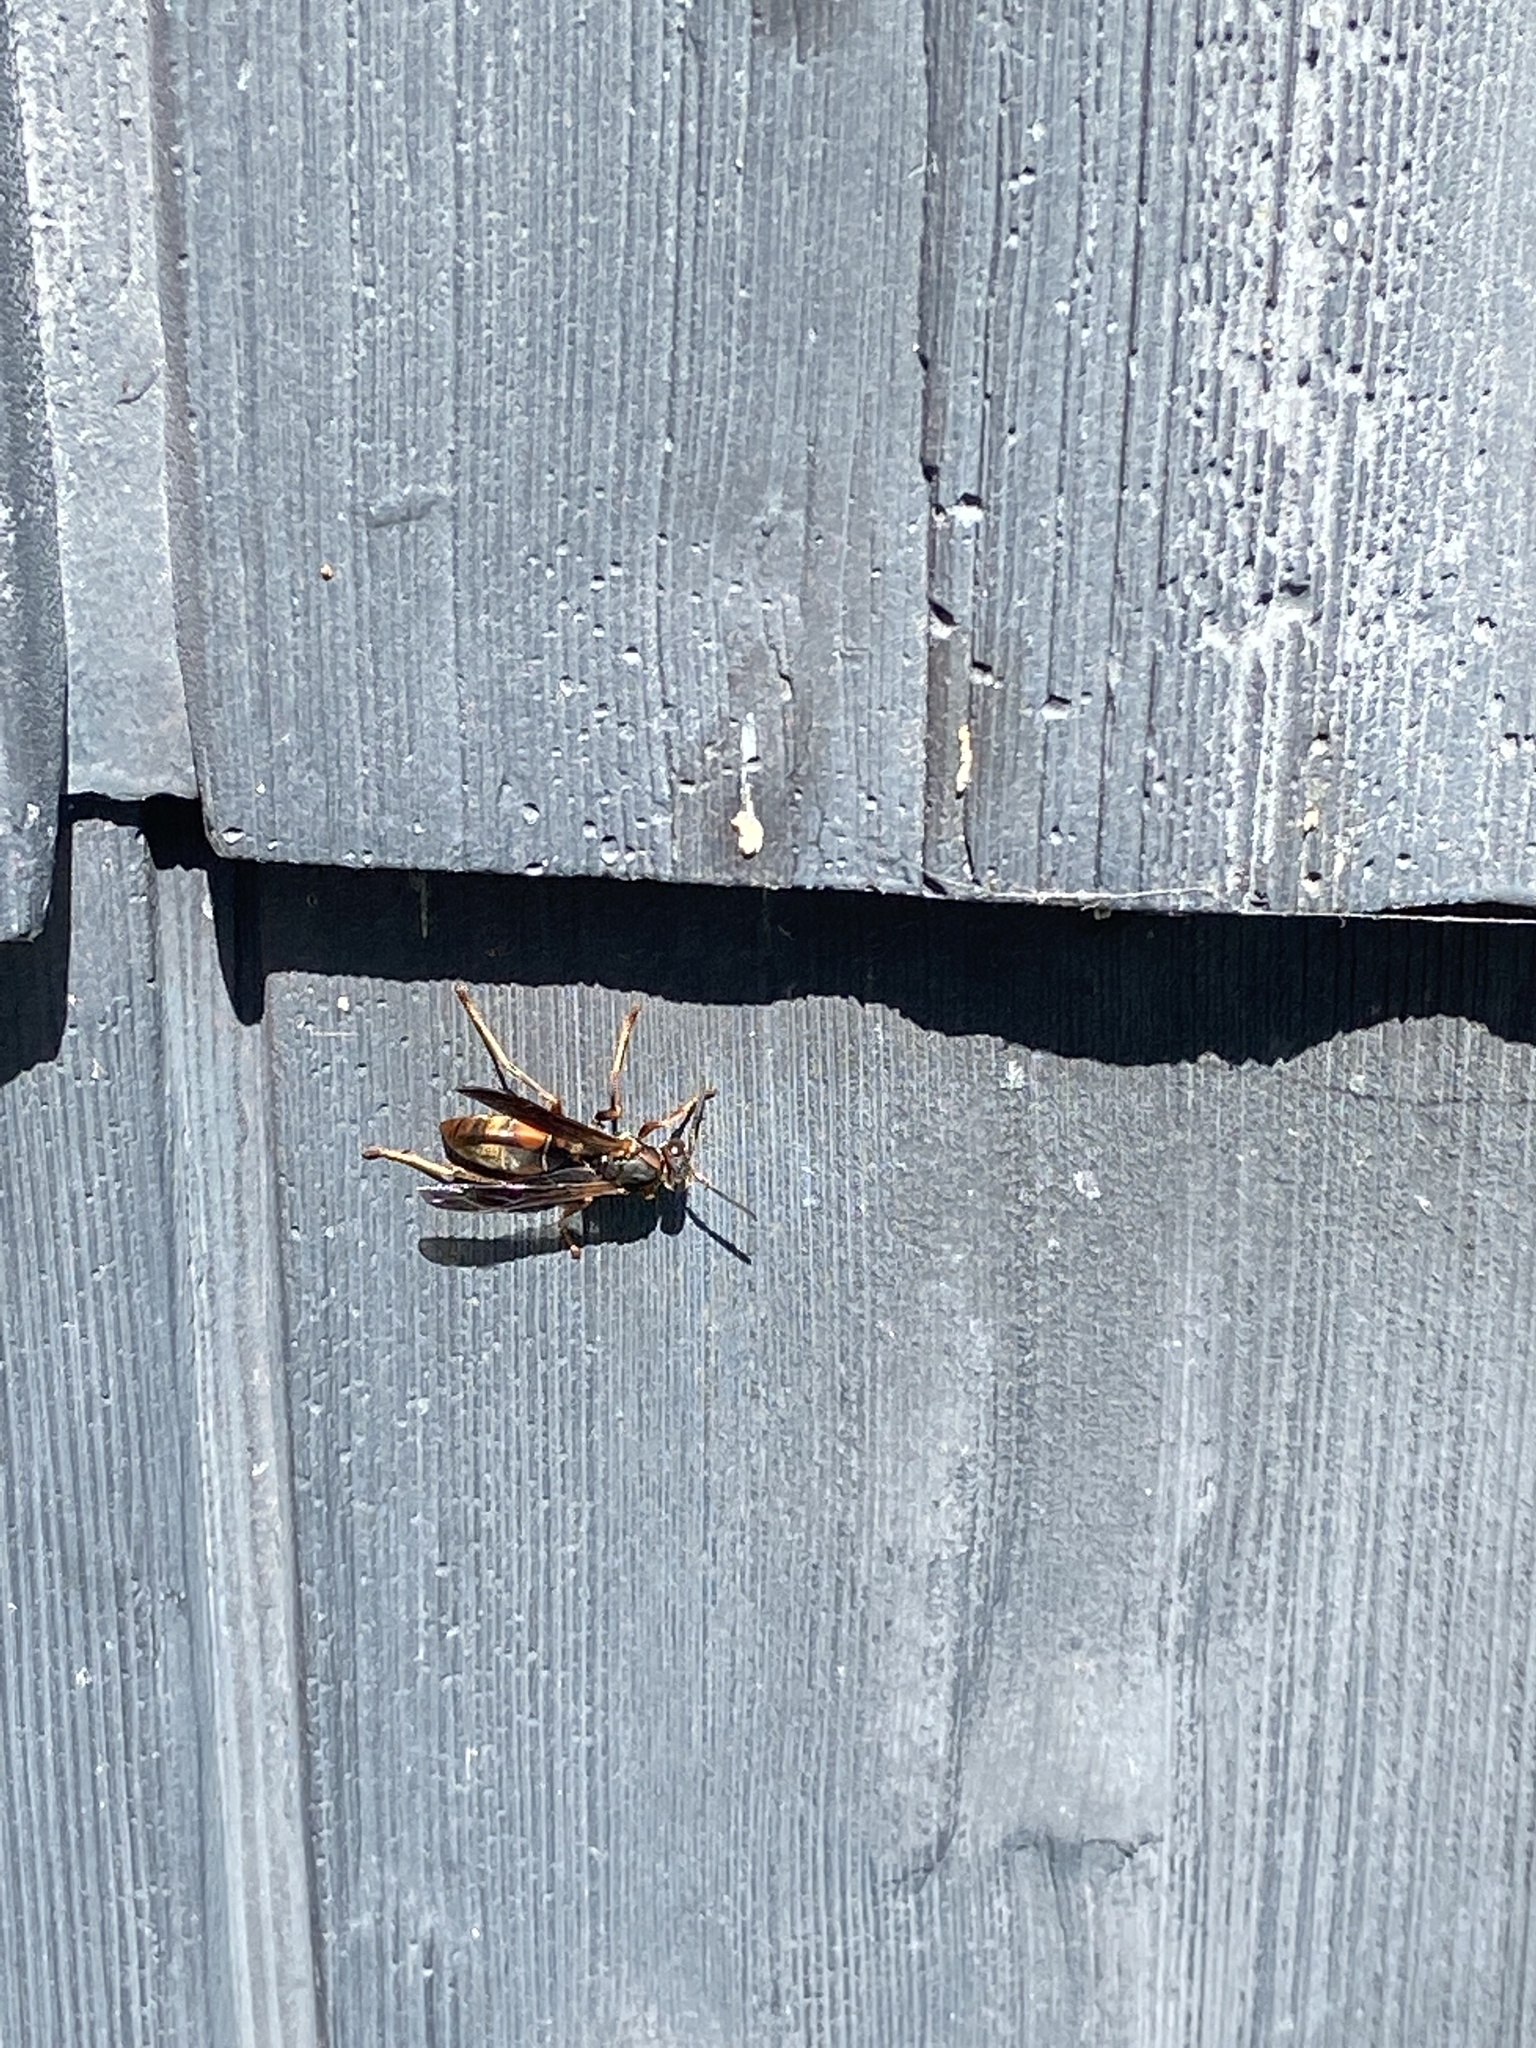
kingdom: Animalia
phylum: Arthropoda
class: Insecta
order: Hymenoptera
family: Eumenidae
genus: Polistes
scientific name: Polistes fuscatus
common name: Dark paper wasp
